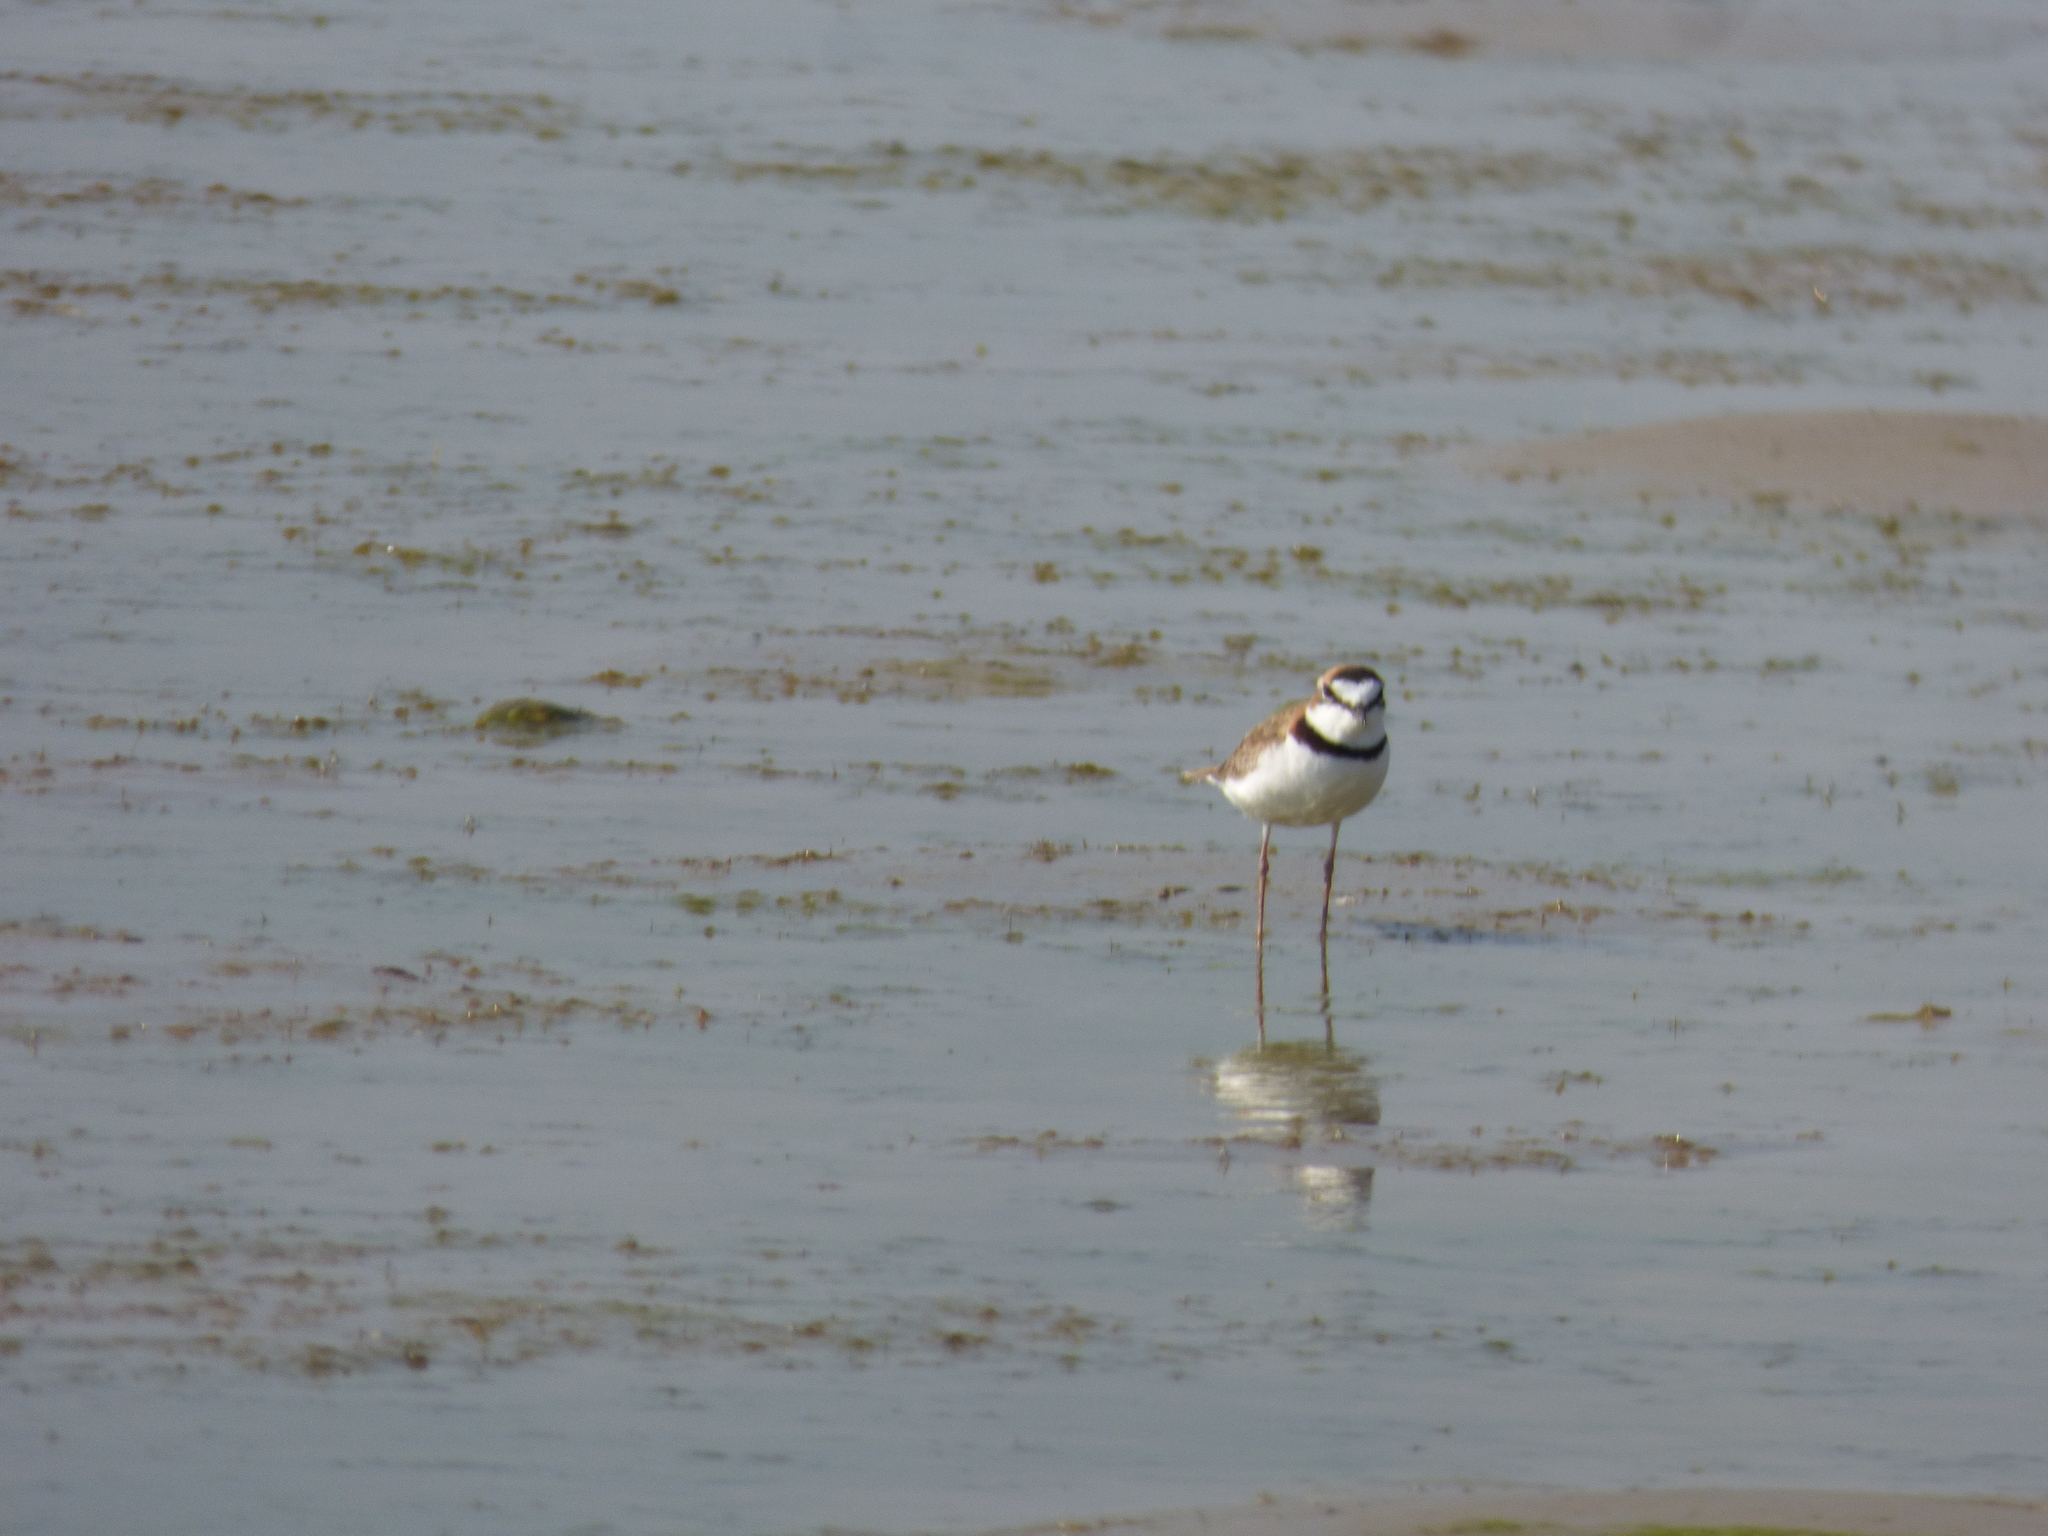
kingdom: Animalia
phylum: Chordata
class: Aves
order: Charadriiformes
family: Charadriidae
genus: Anarhynchus
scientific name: Anarhynchus
